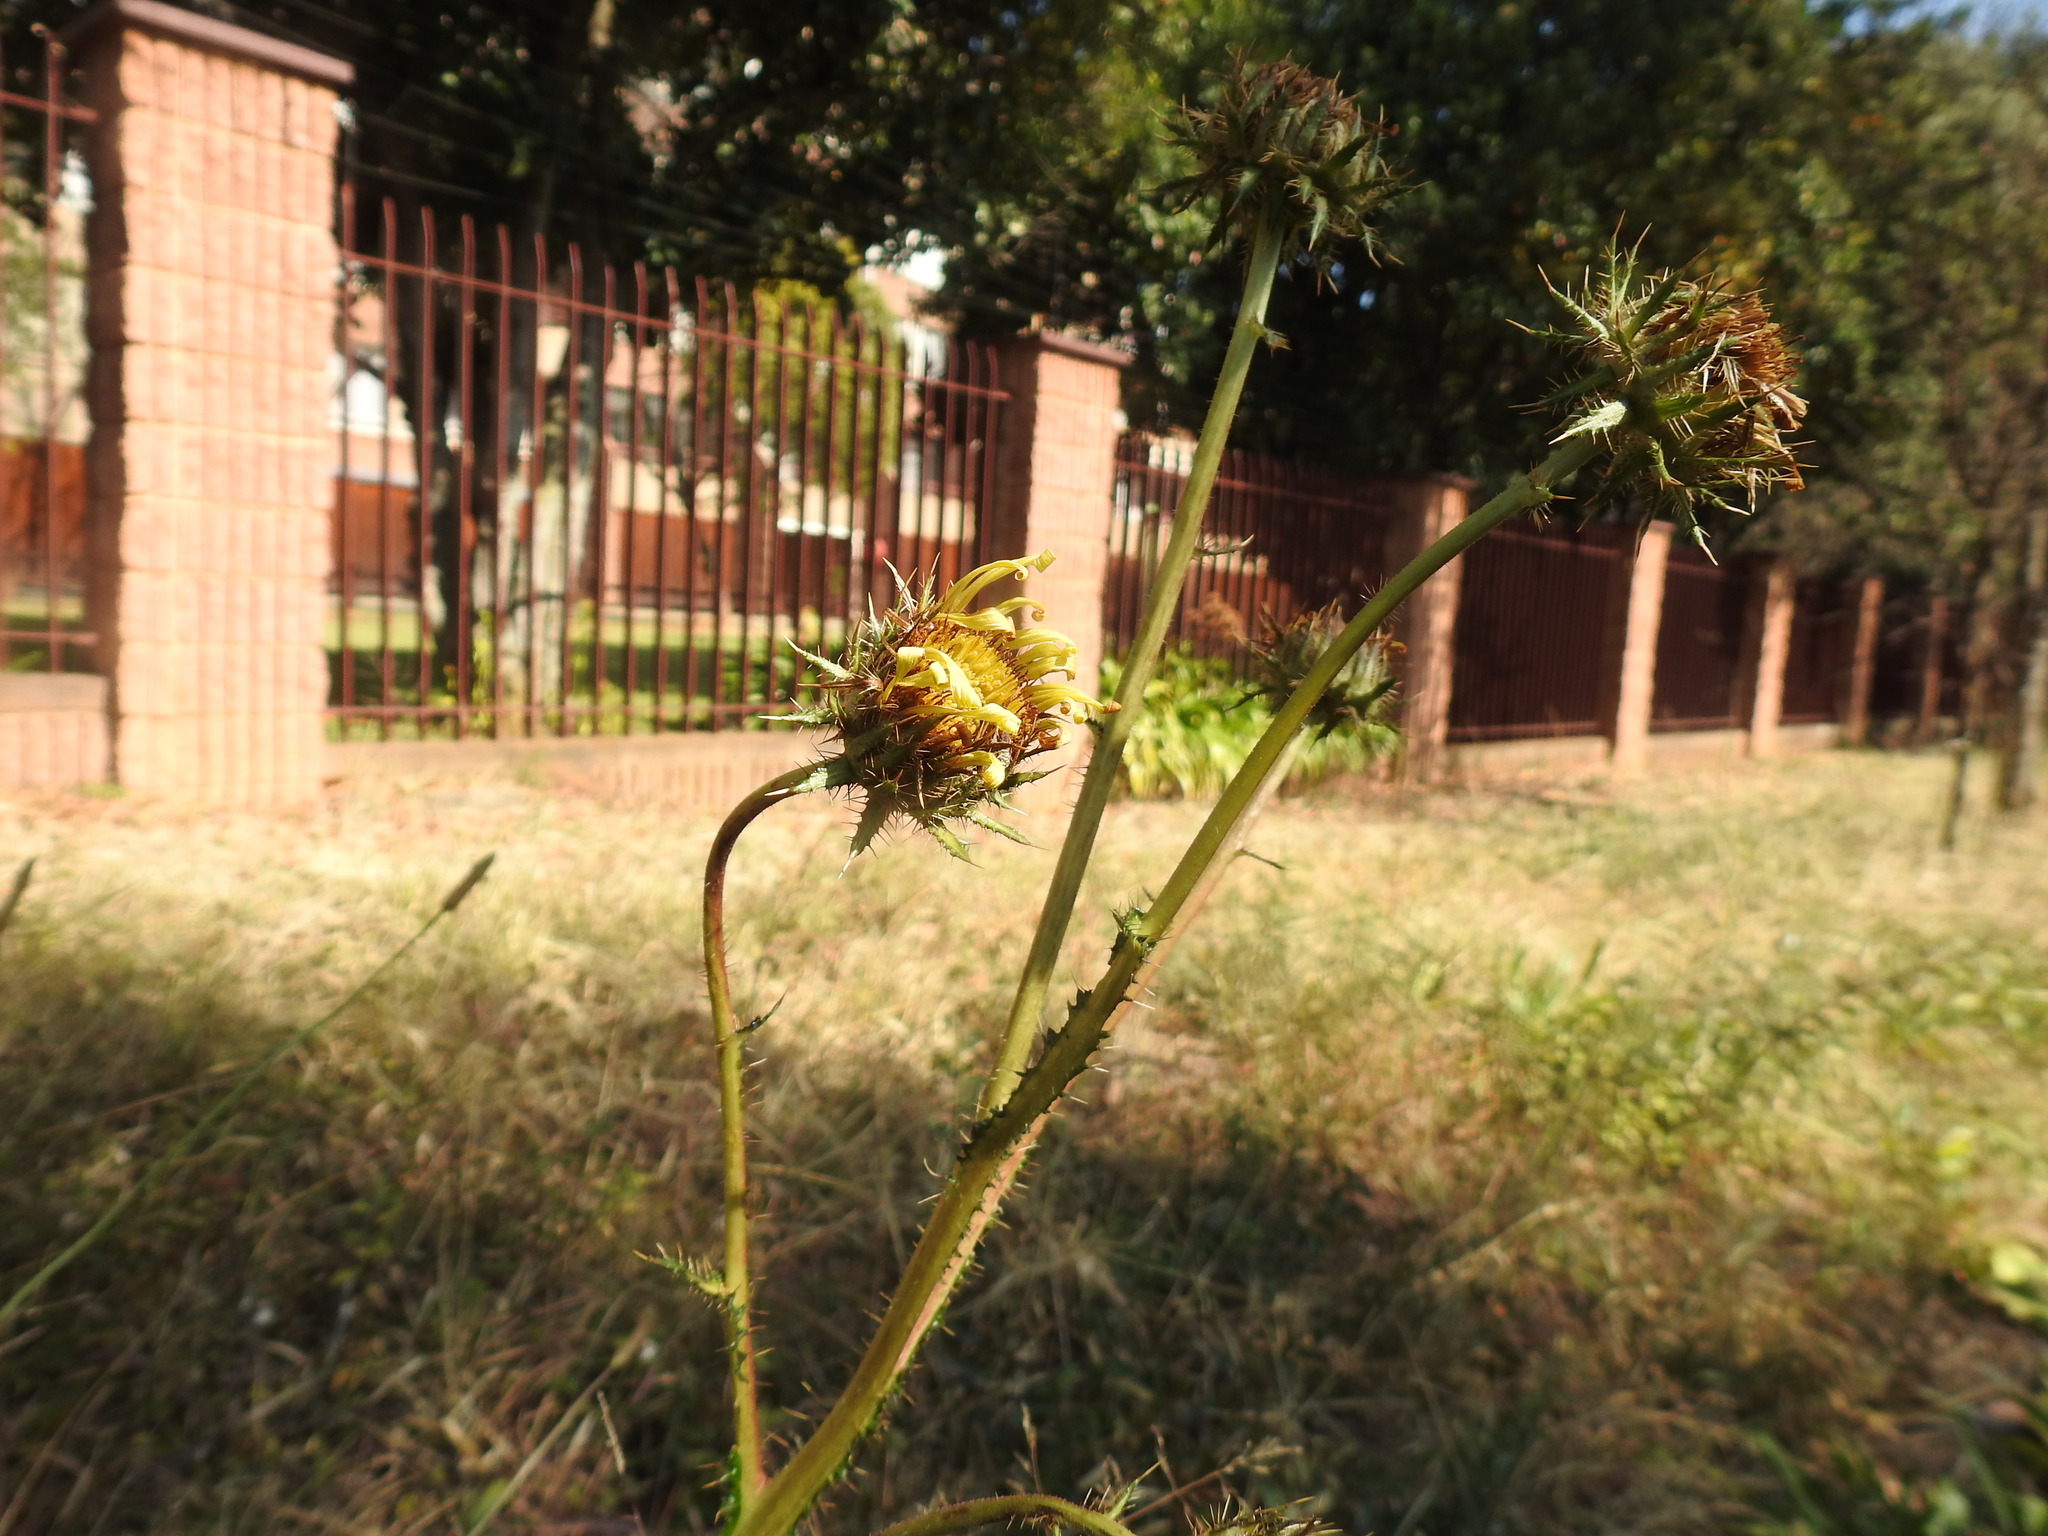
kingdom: Plantae
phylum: Tracheophyta
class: Magnoliopsida
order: Asterales
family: Asteraceae
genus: Berkheya
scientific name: Berkheya radula
